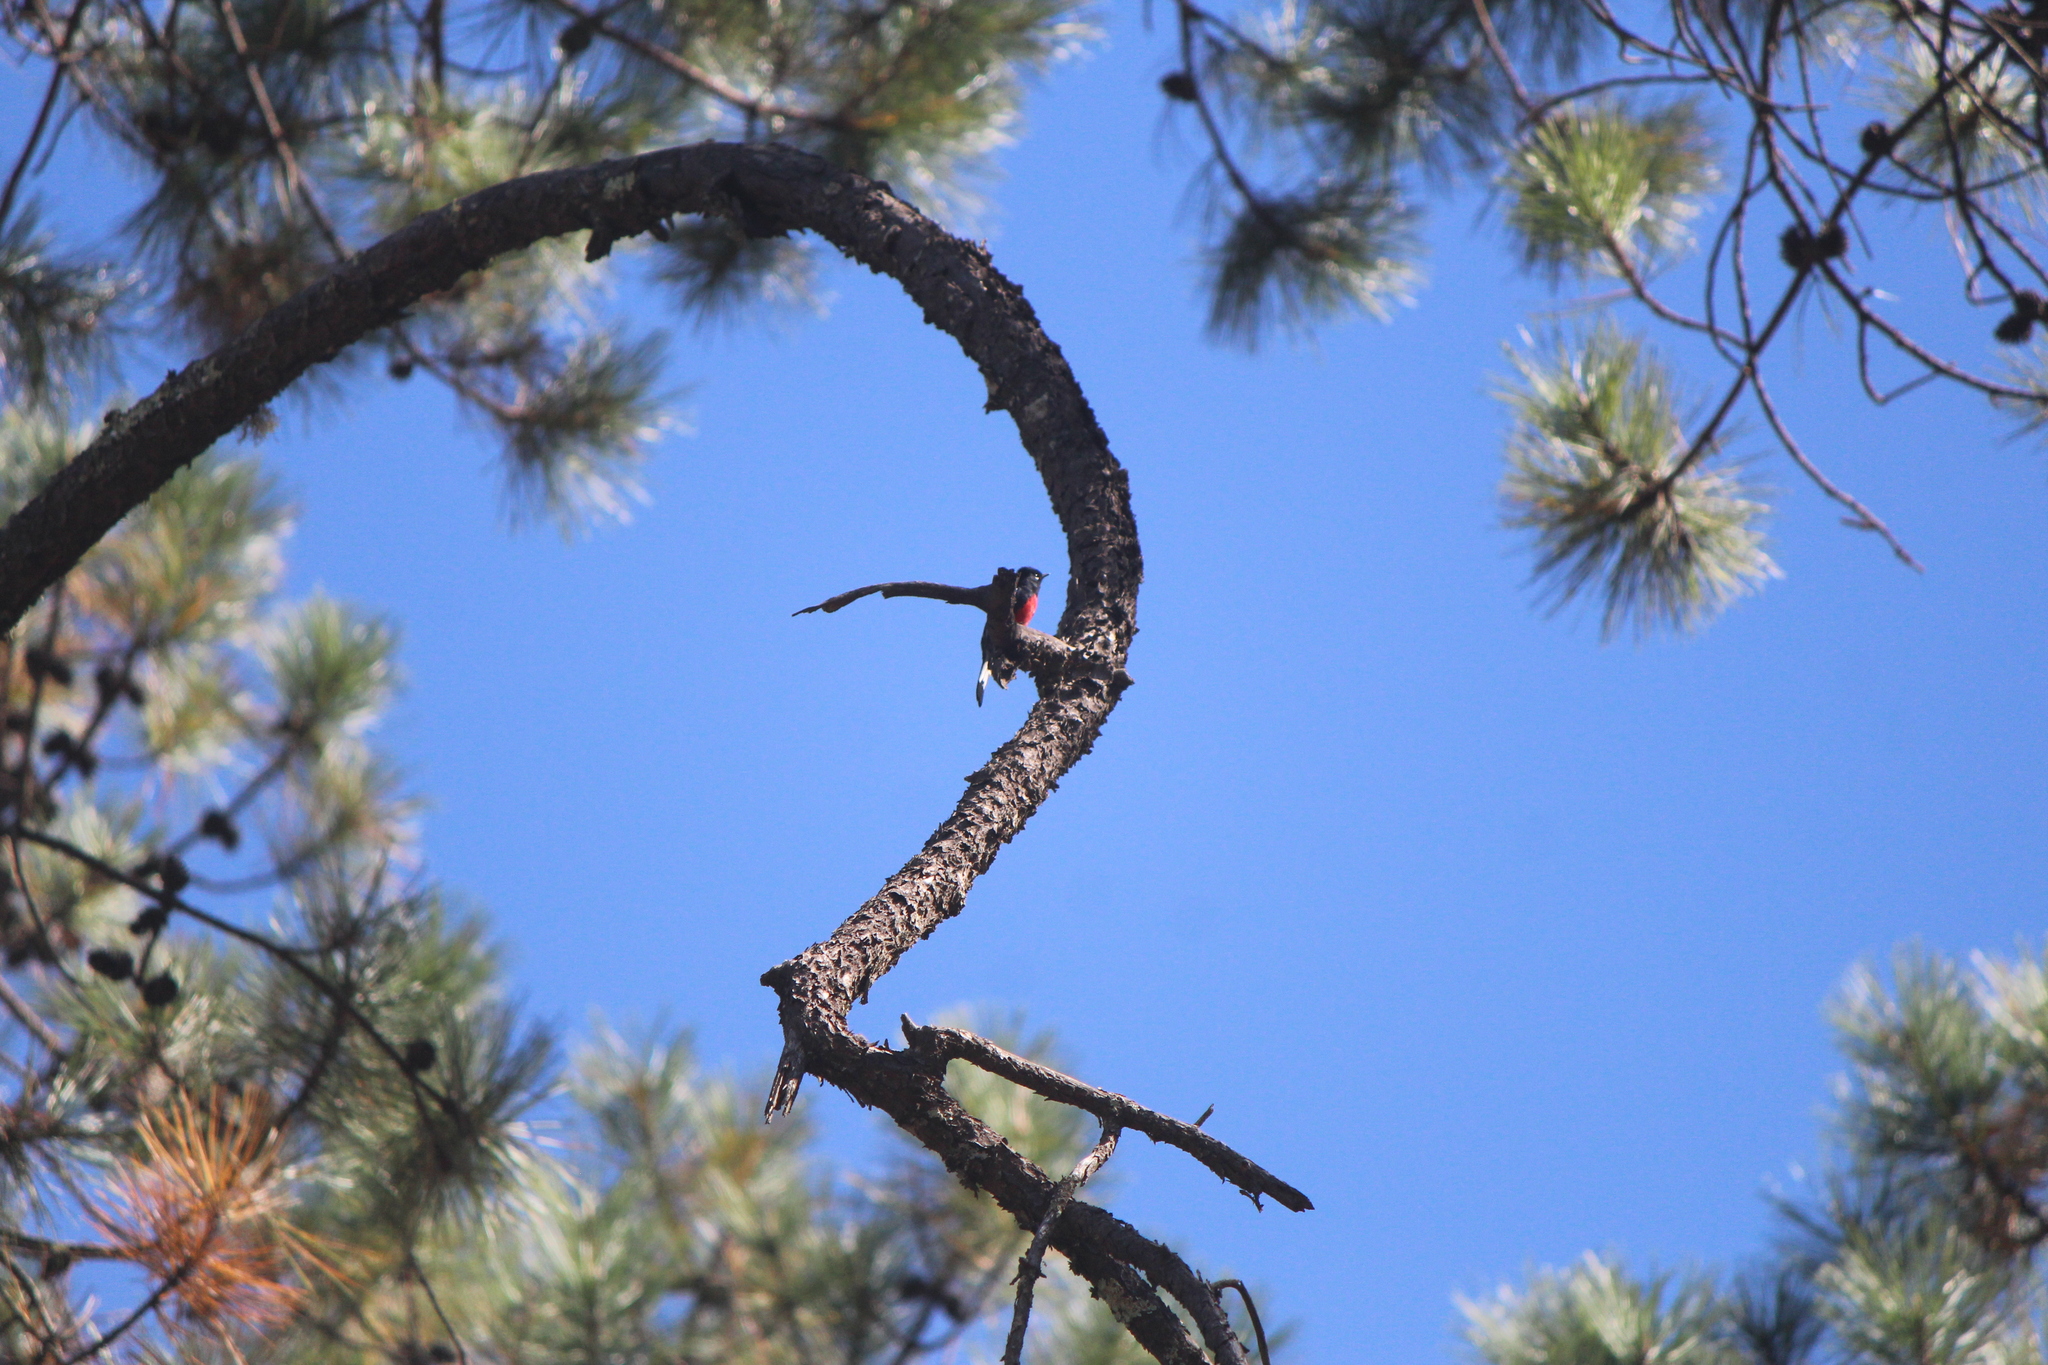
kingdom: Animalia
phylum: Chordata
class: Aves
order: Passeriformes
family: Parulidae
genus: Myioborus
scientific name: Myioborus pictus
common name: Painted whitestart
